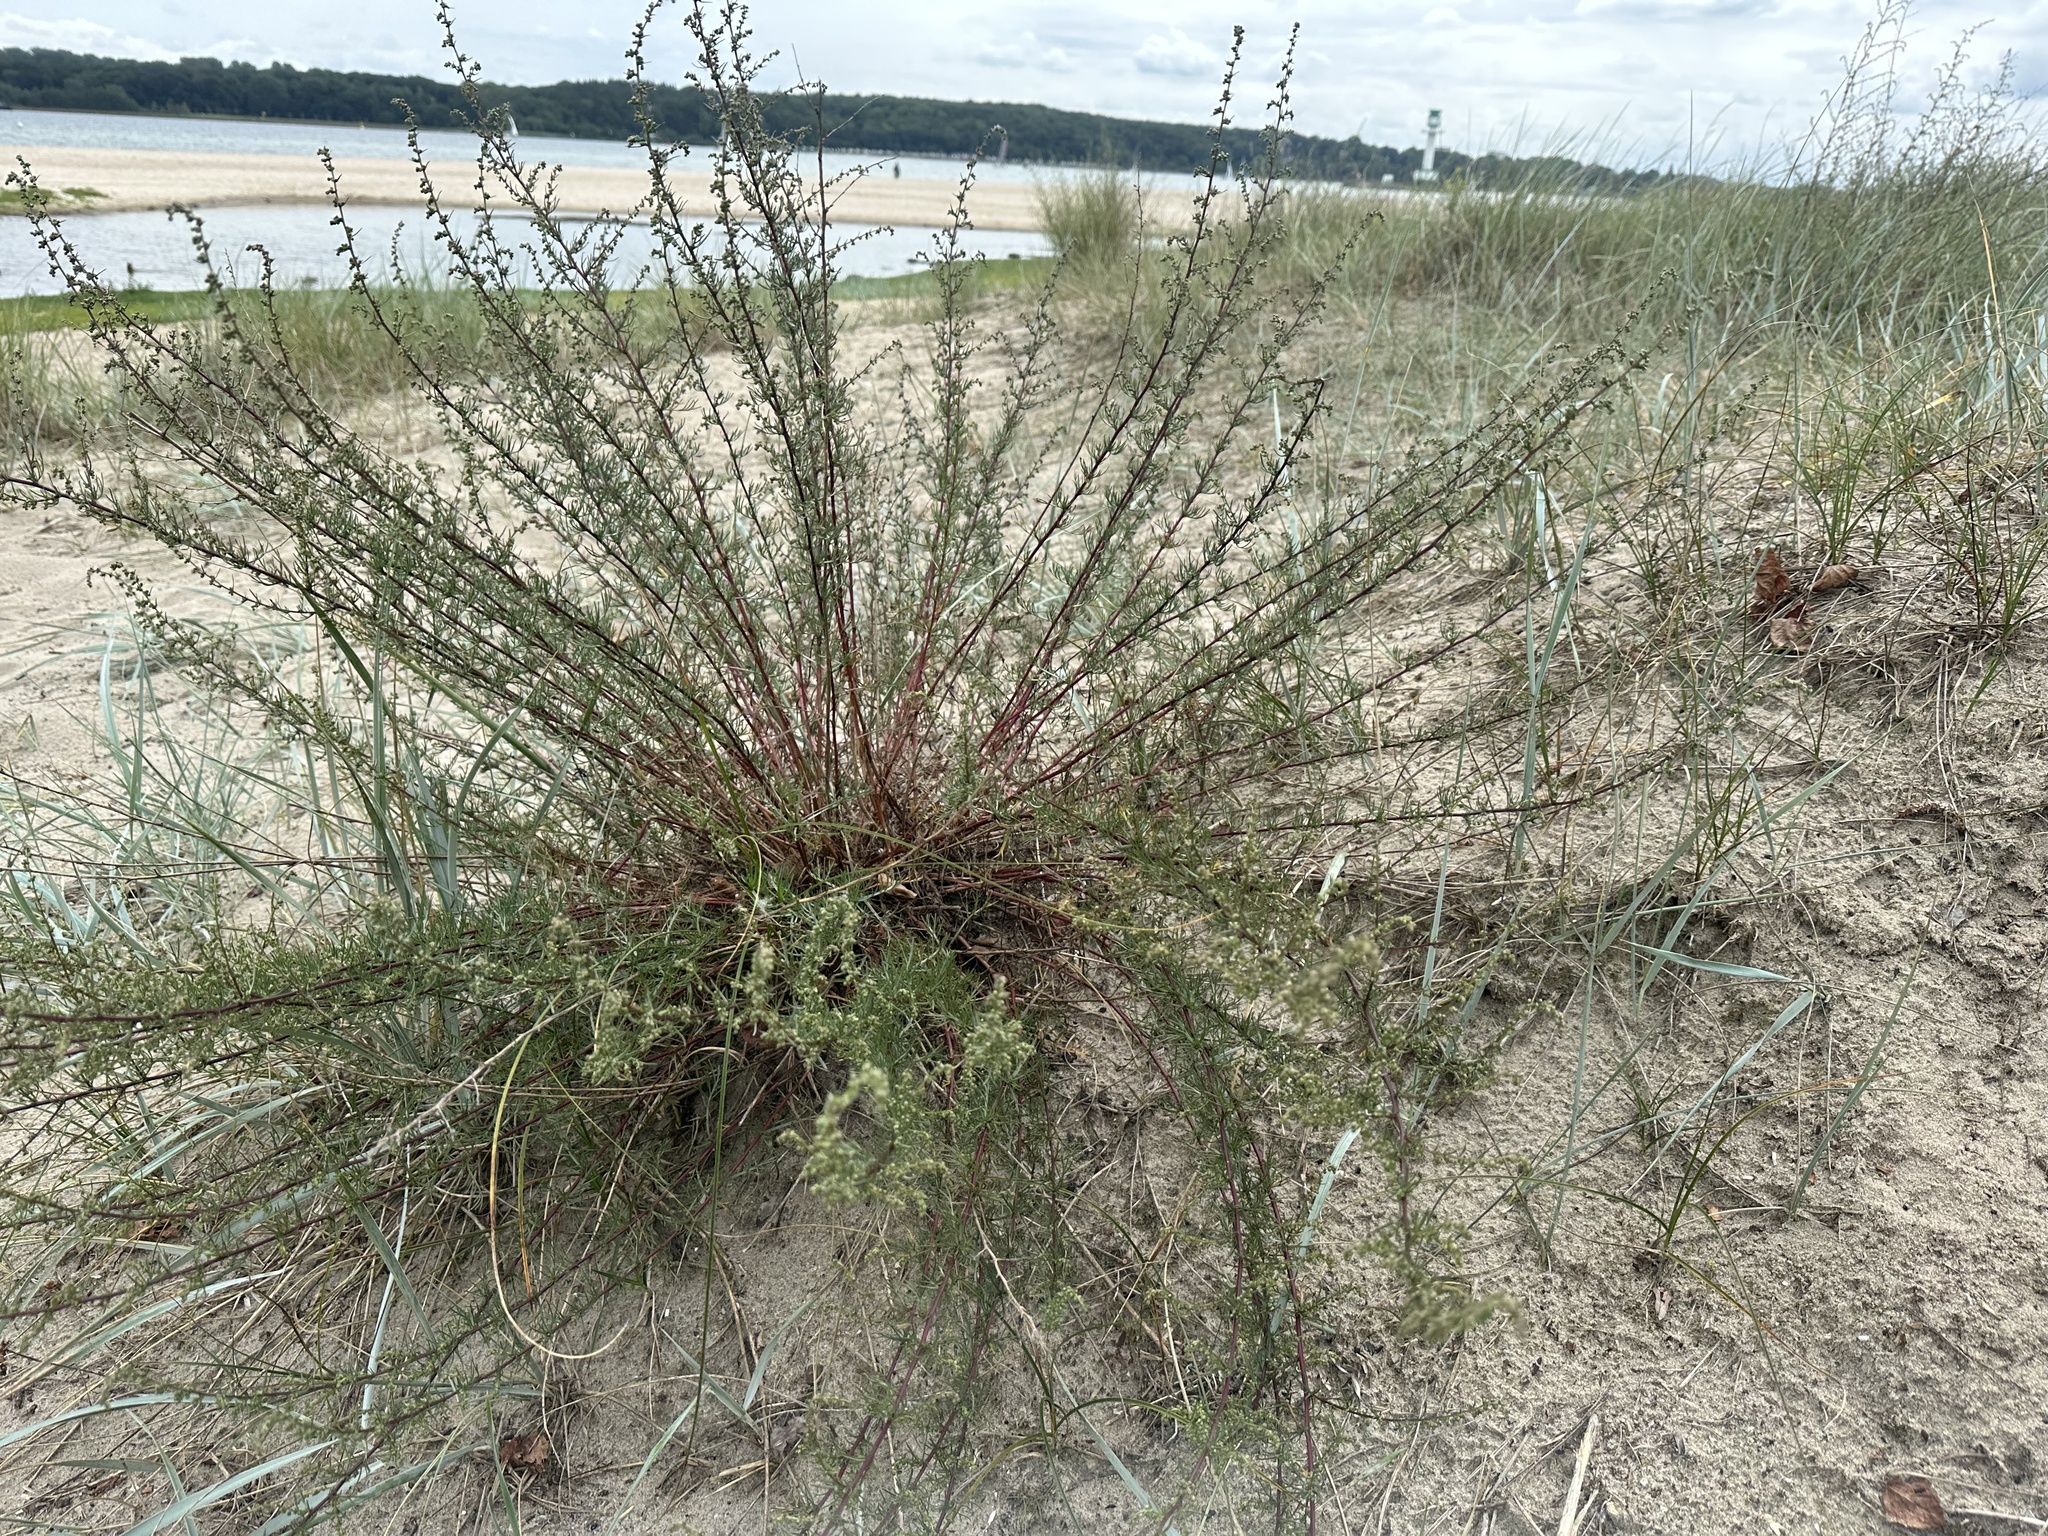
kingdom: Plantae
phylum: Tracheophyta
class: Magnoliopsida
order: Asterales
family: Asteraceae
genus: Artemisia
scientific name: Artemisia campestris
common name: Field wormwood
